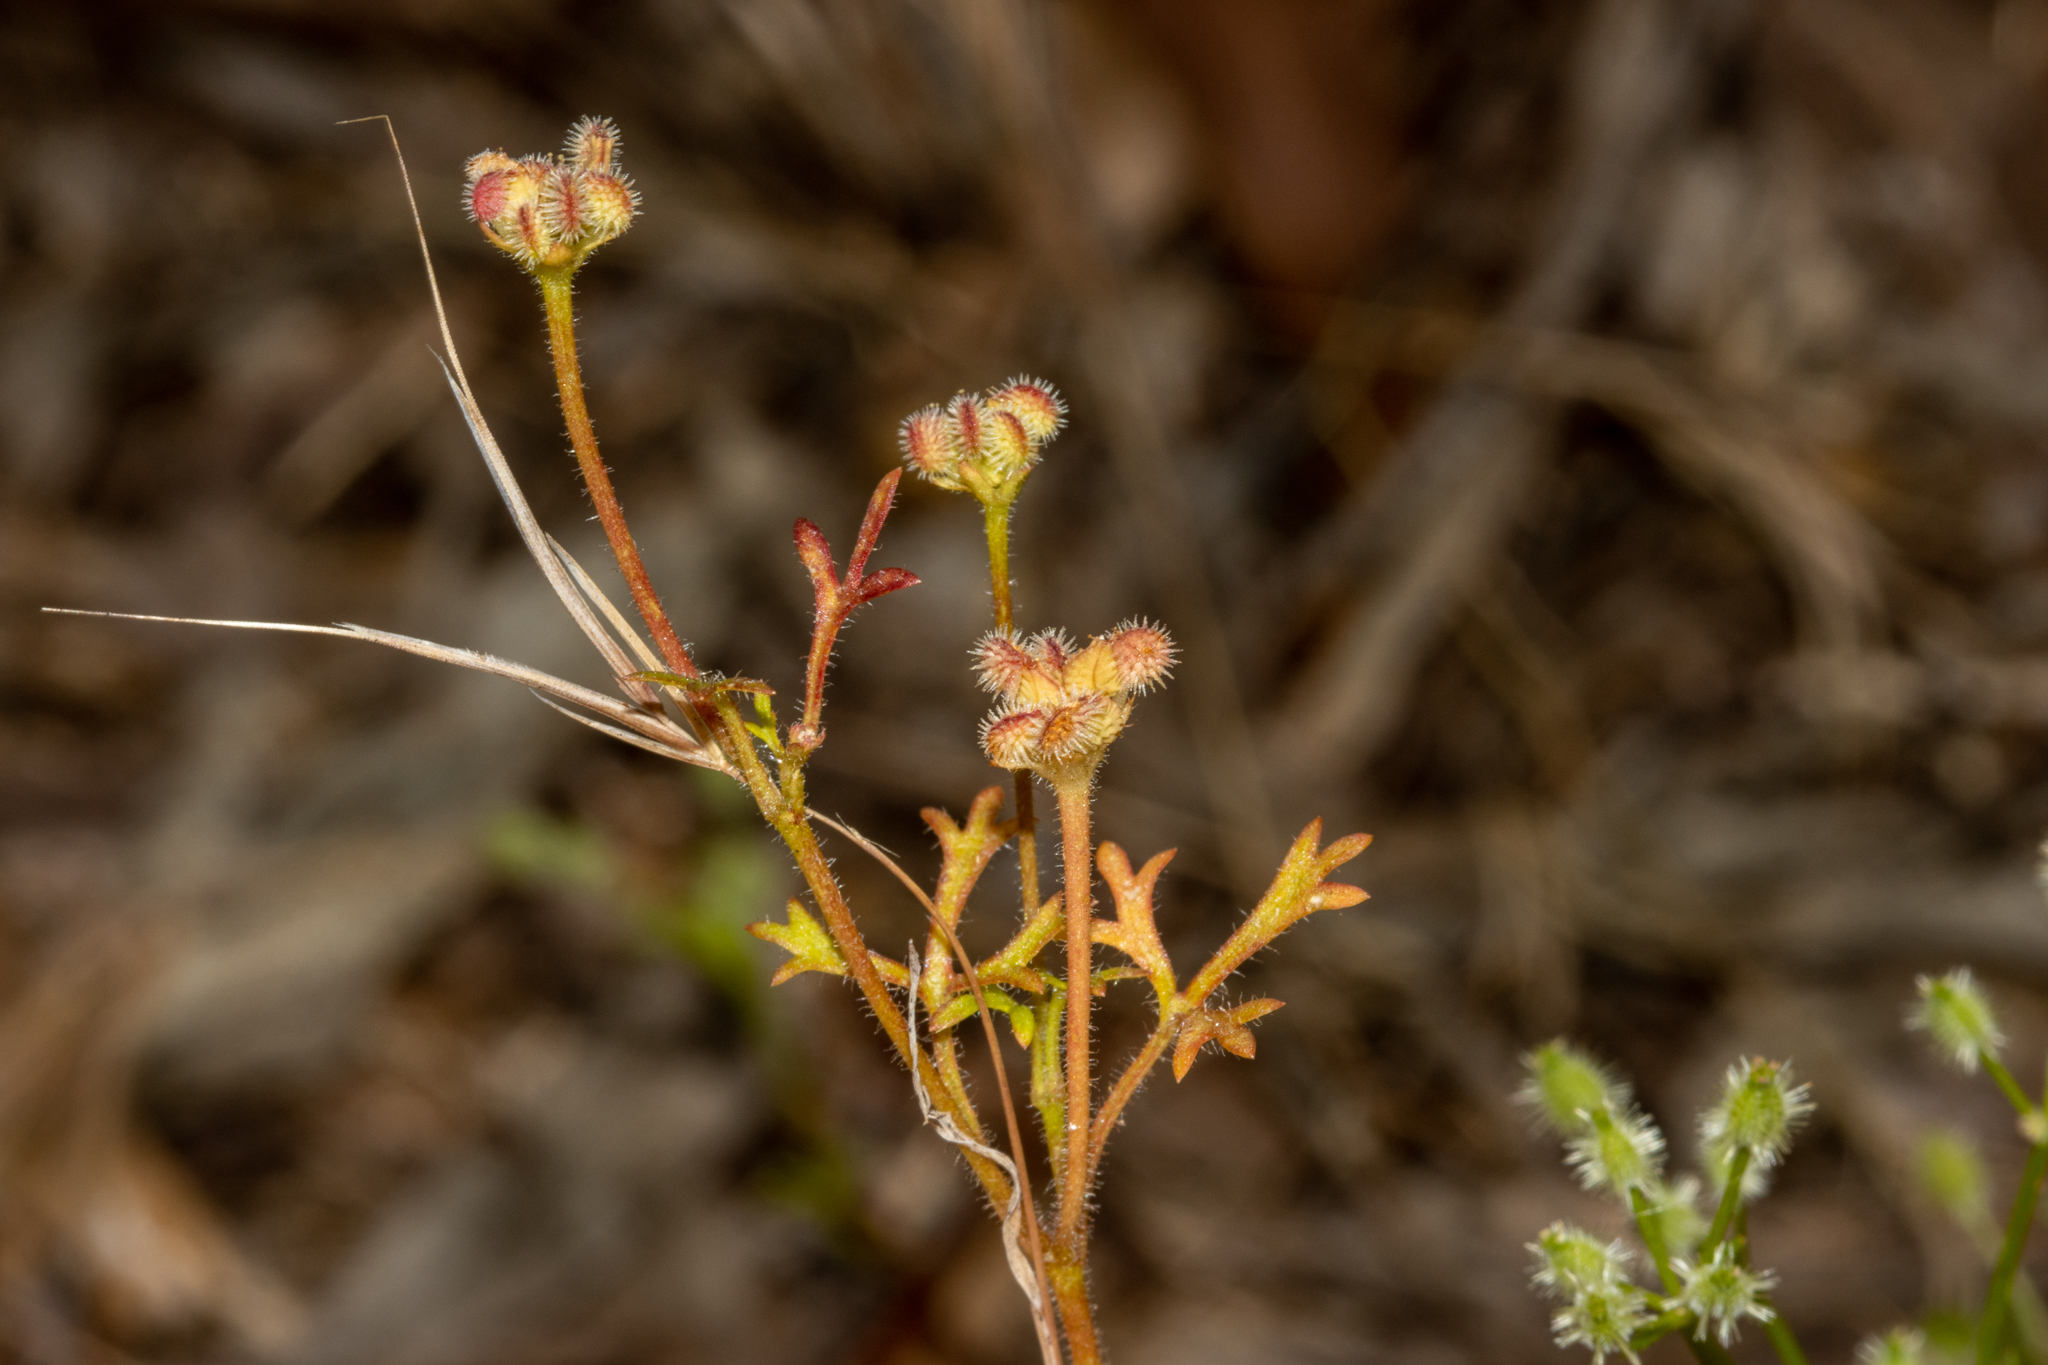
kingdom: Plantae
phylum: Tracheophyta
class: Magnoliopsida
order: Apiales
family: Araliaceae
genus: Trachymene
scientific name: Trachymene pilosa
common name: Dwarf trachymene
